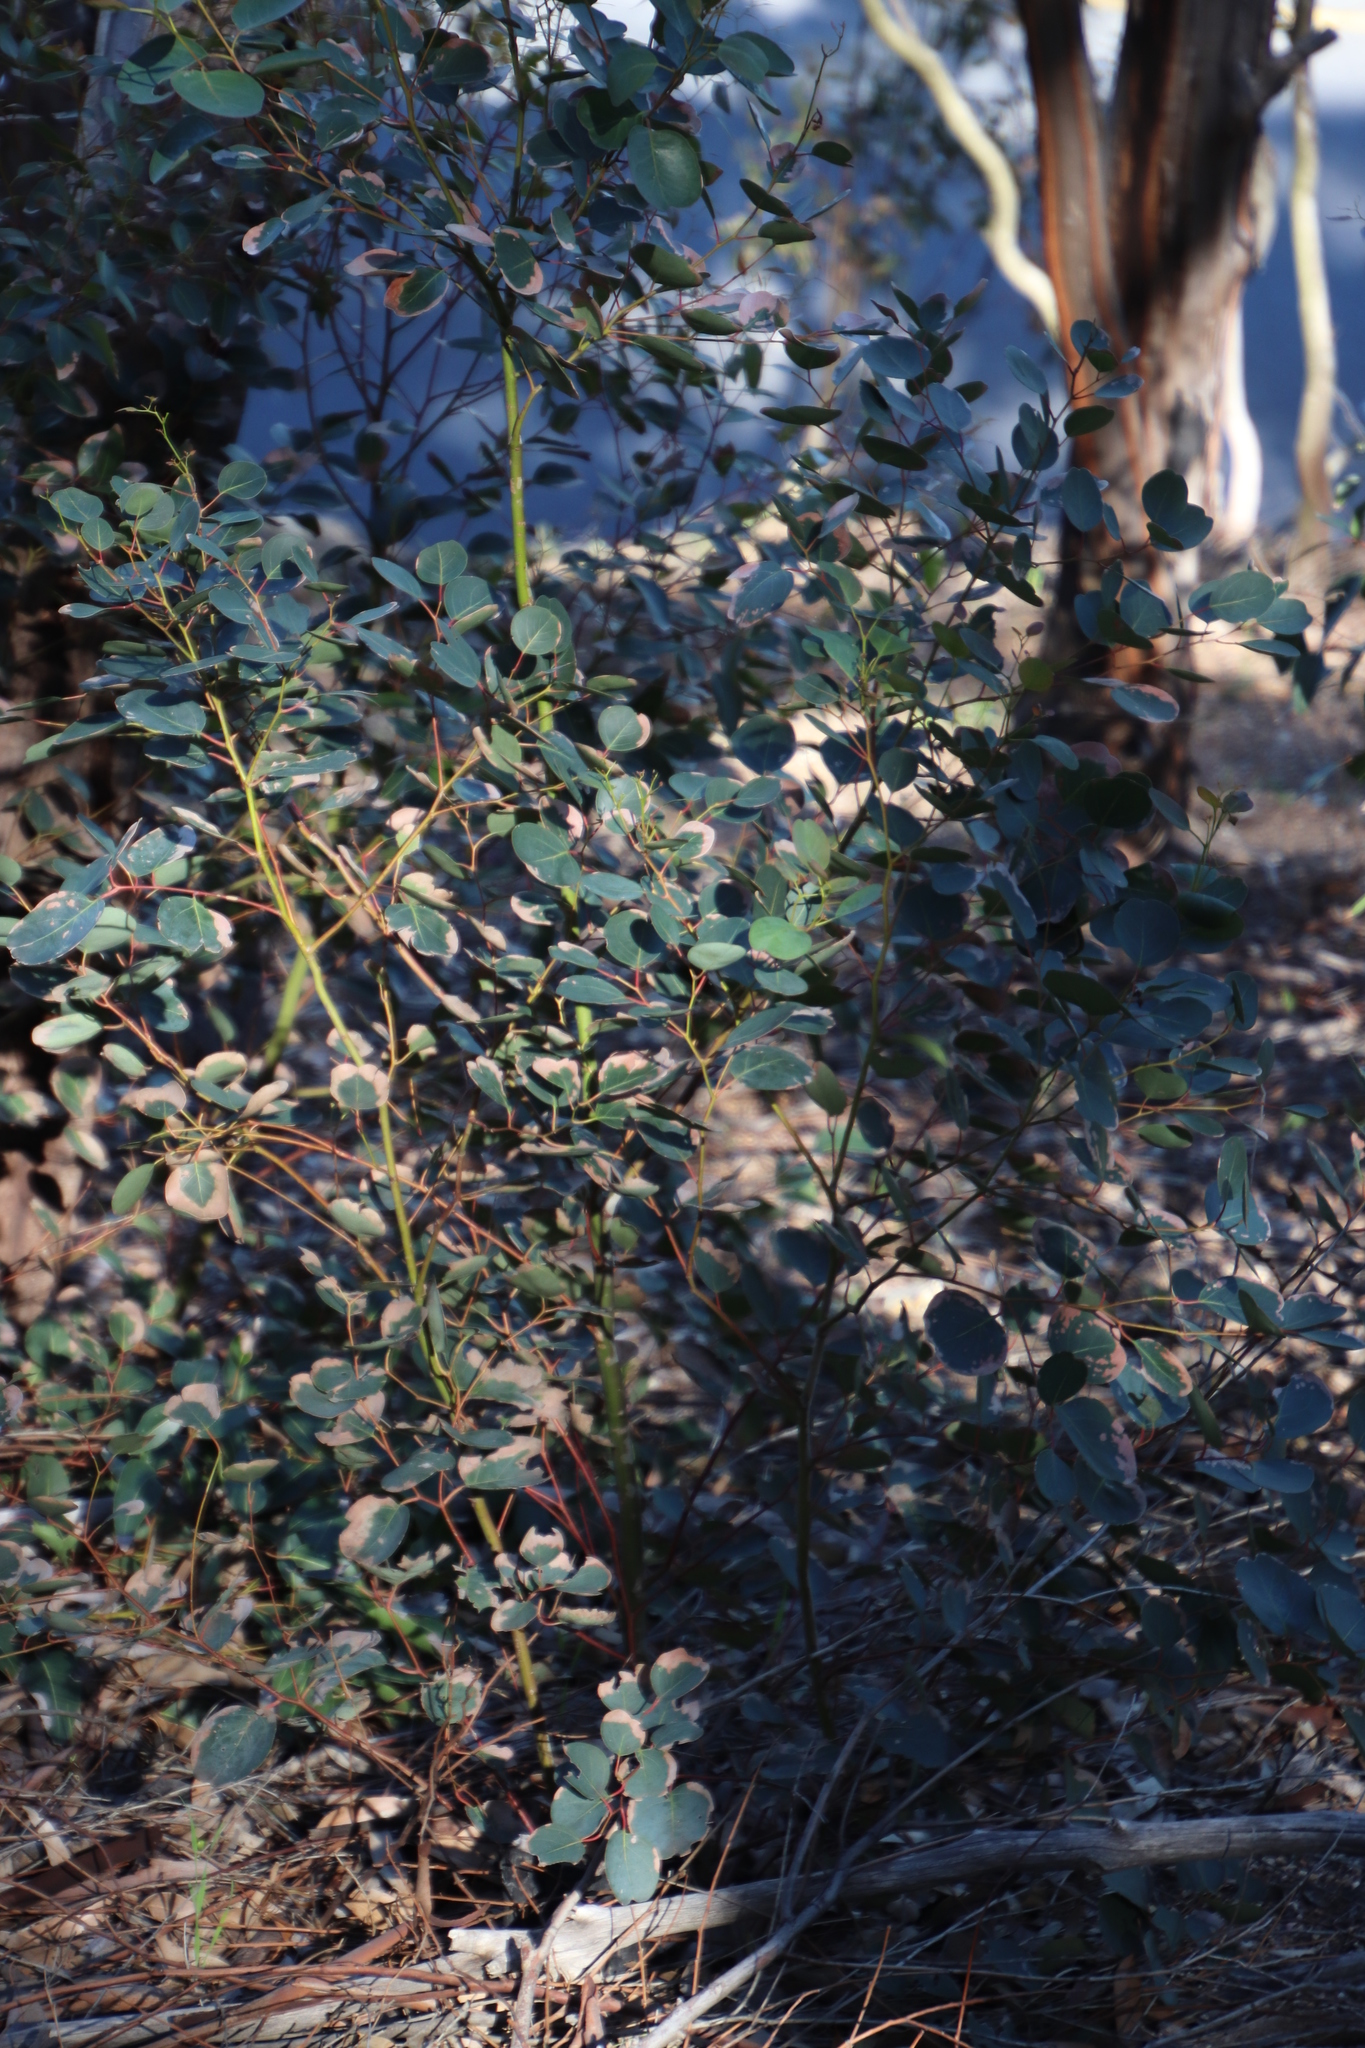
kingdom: Plantae
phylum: Tracheophyta
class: Magnoliopsida
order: Myrtales
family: Myrtaceae
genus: Eucalyptus
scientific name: Eucalyptus cladocalyx
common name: Sugargum
